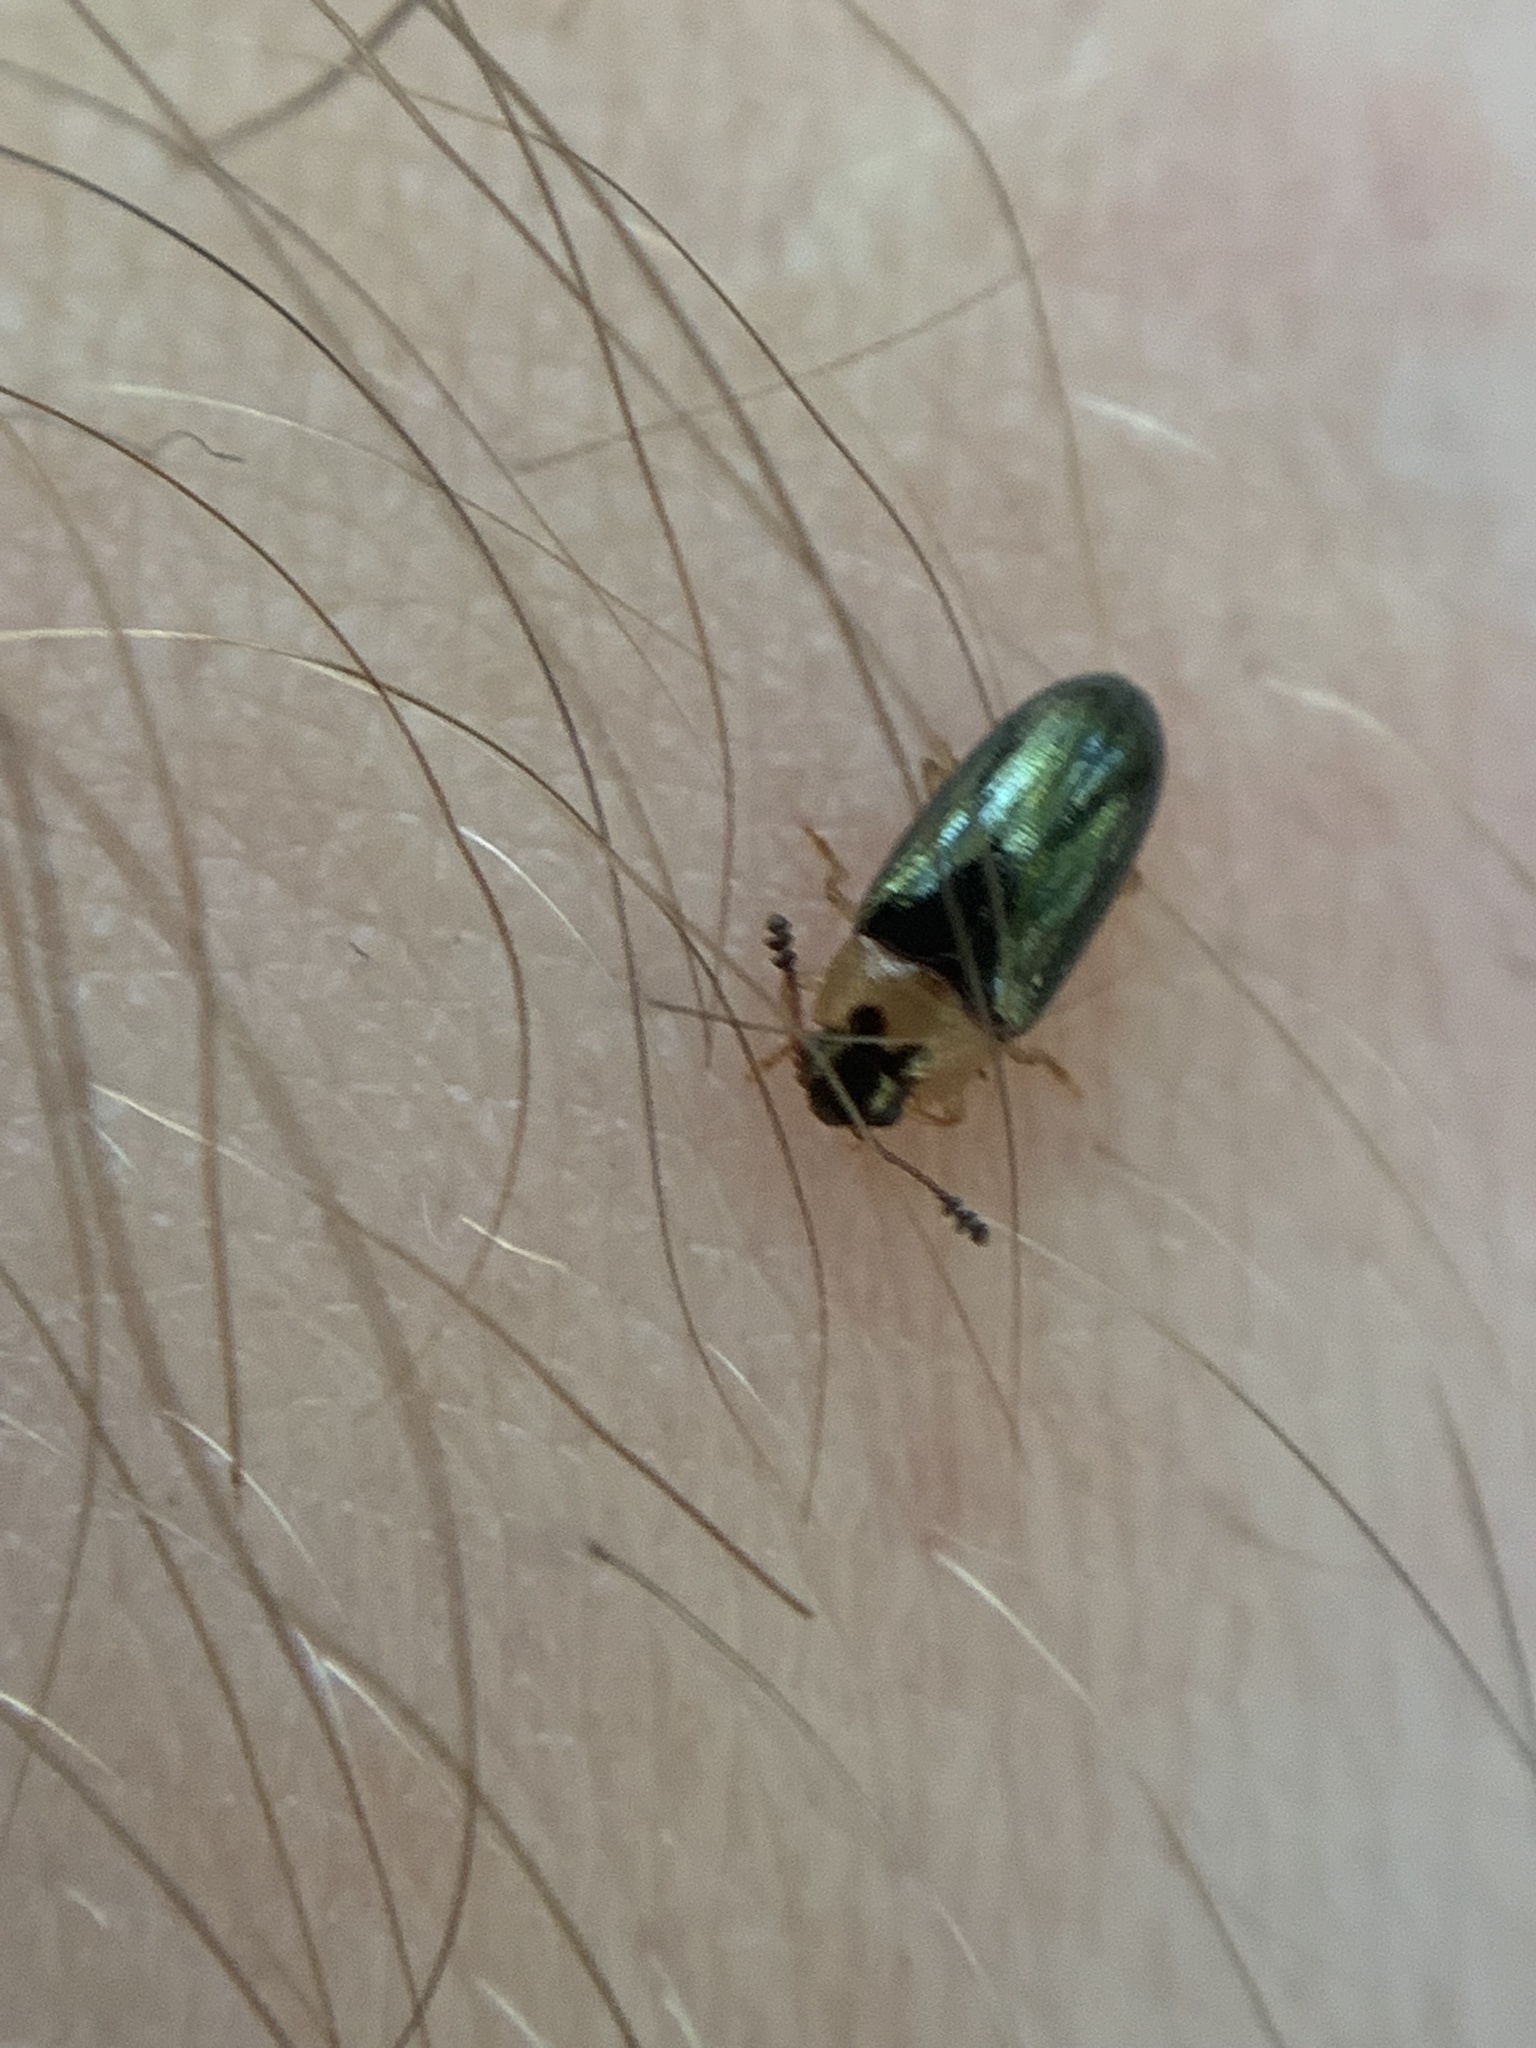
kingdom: Animalia
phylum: Arthropoda
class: Insecta
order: Coleoptera
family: Scarabaeidae
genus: Xalpirta
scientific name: Xalpirta
